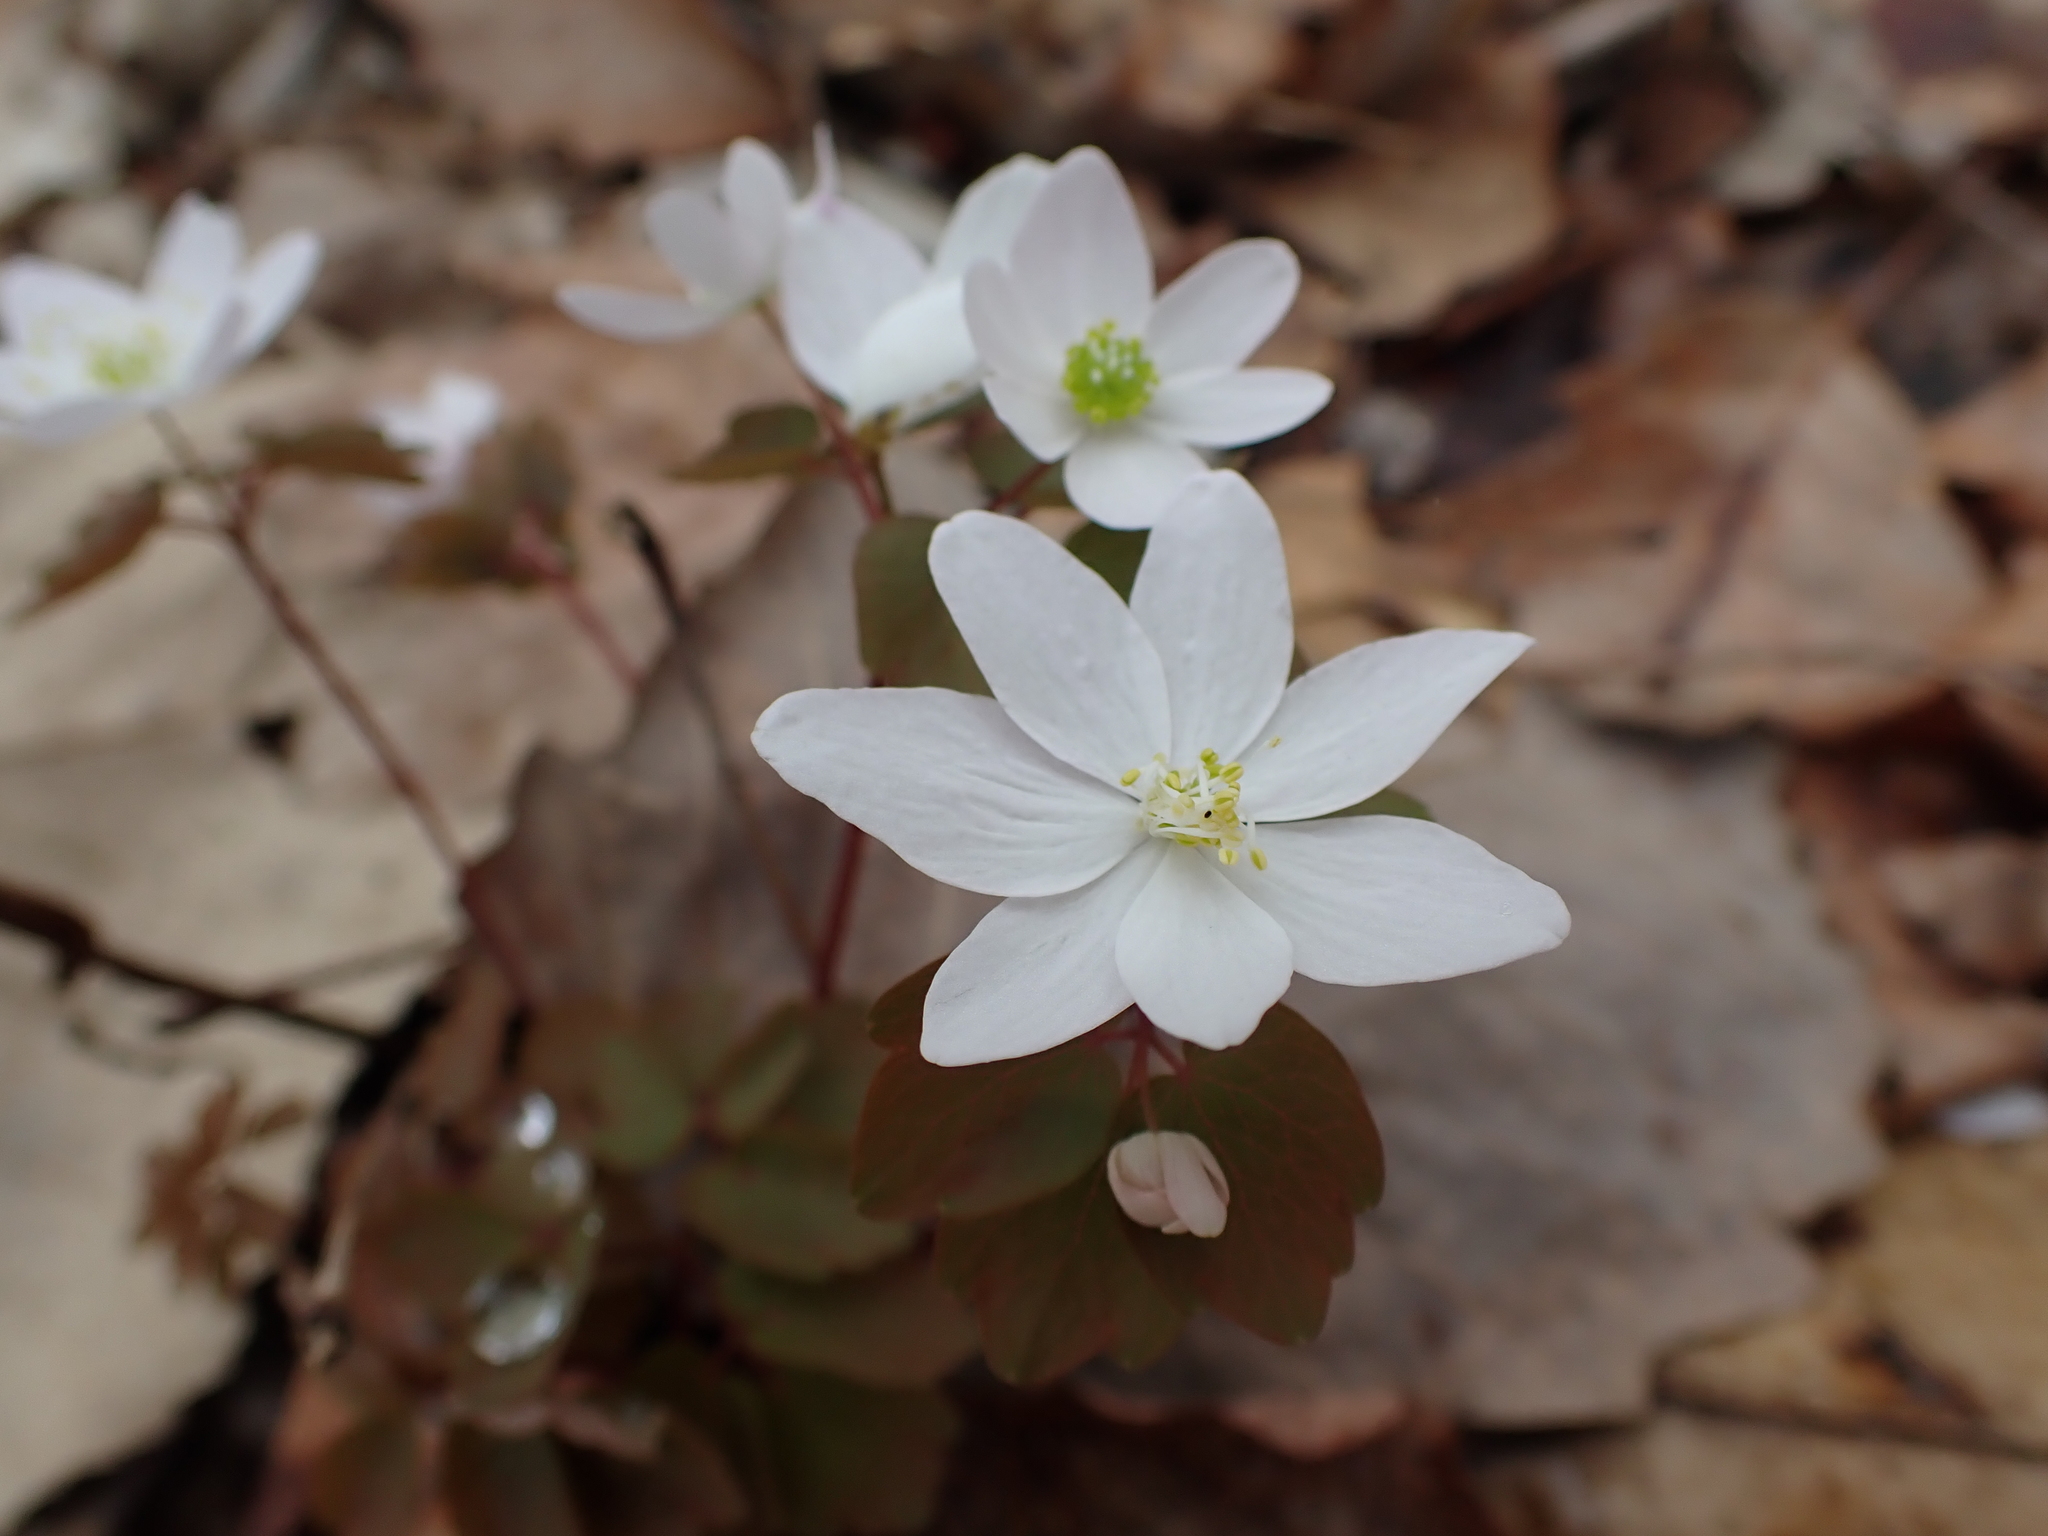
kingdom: Plantae
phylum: Tracheophyta
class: Magnoliopsida
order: Ranunculales
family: Ranunculaceae
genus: Thalictrum
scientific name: Thalictrum thalictroides
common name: Rue-anemone
